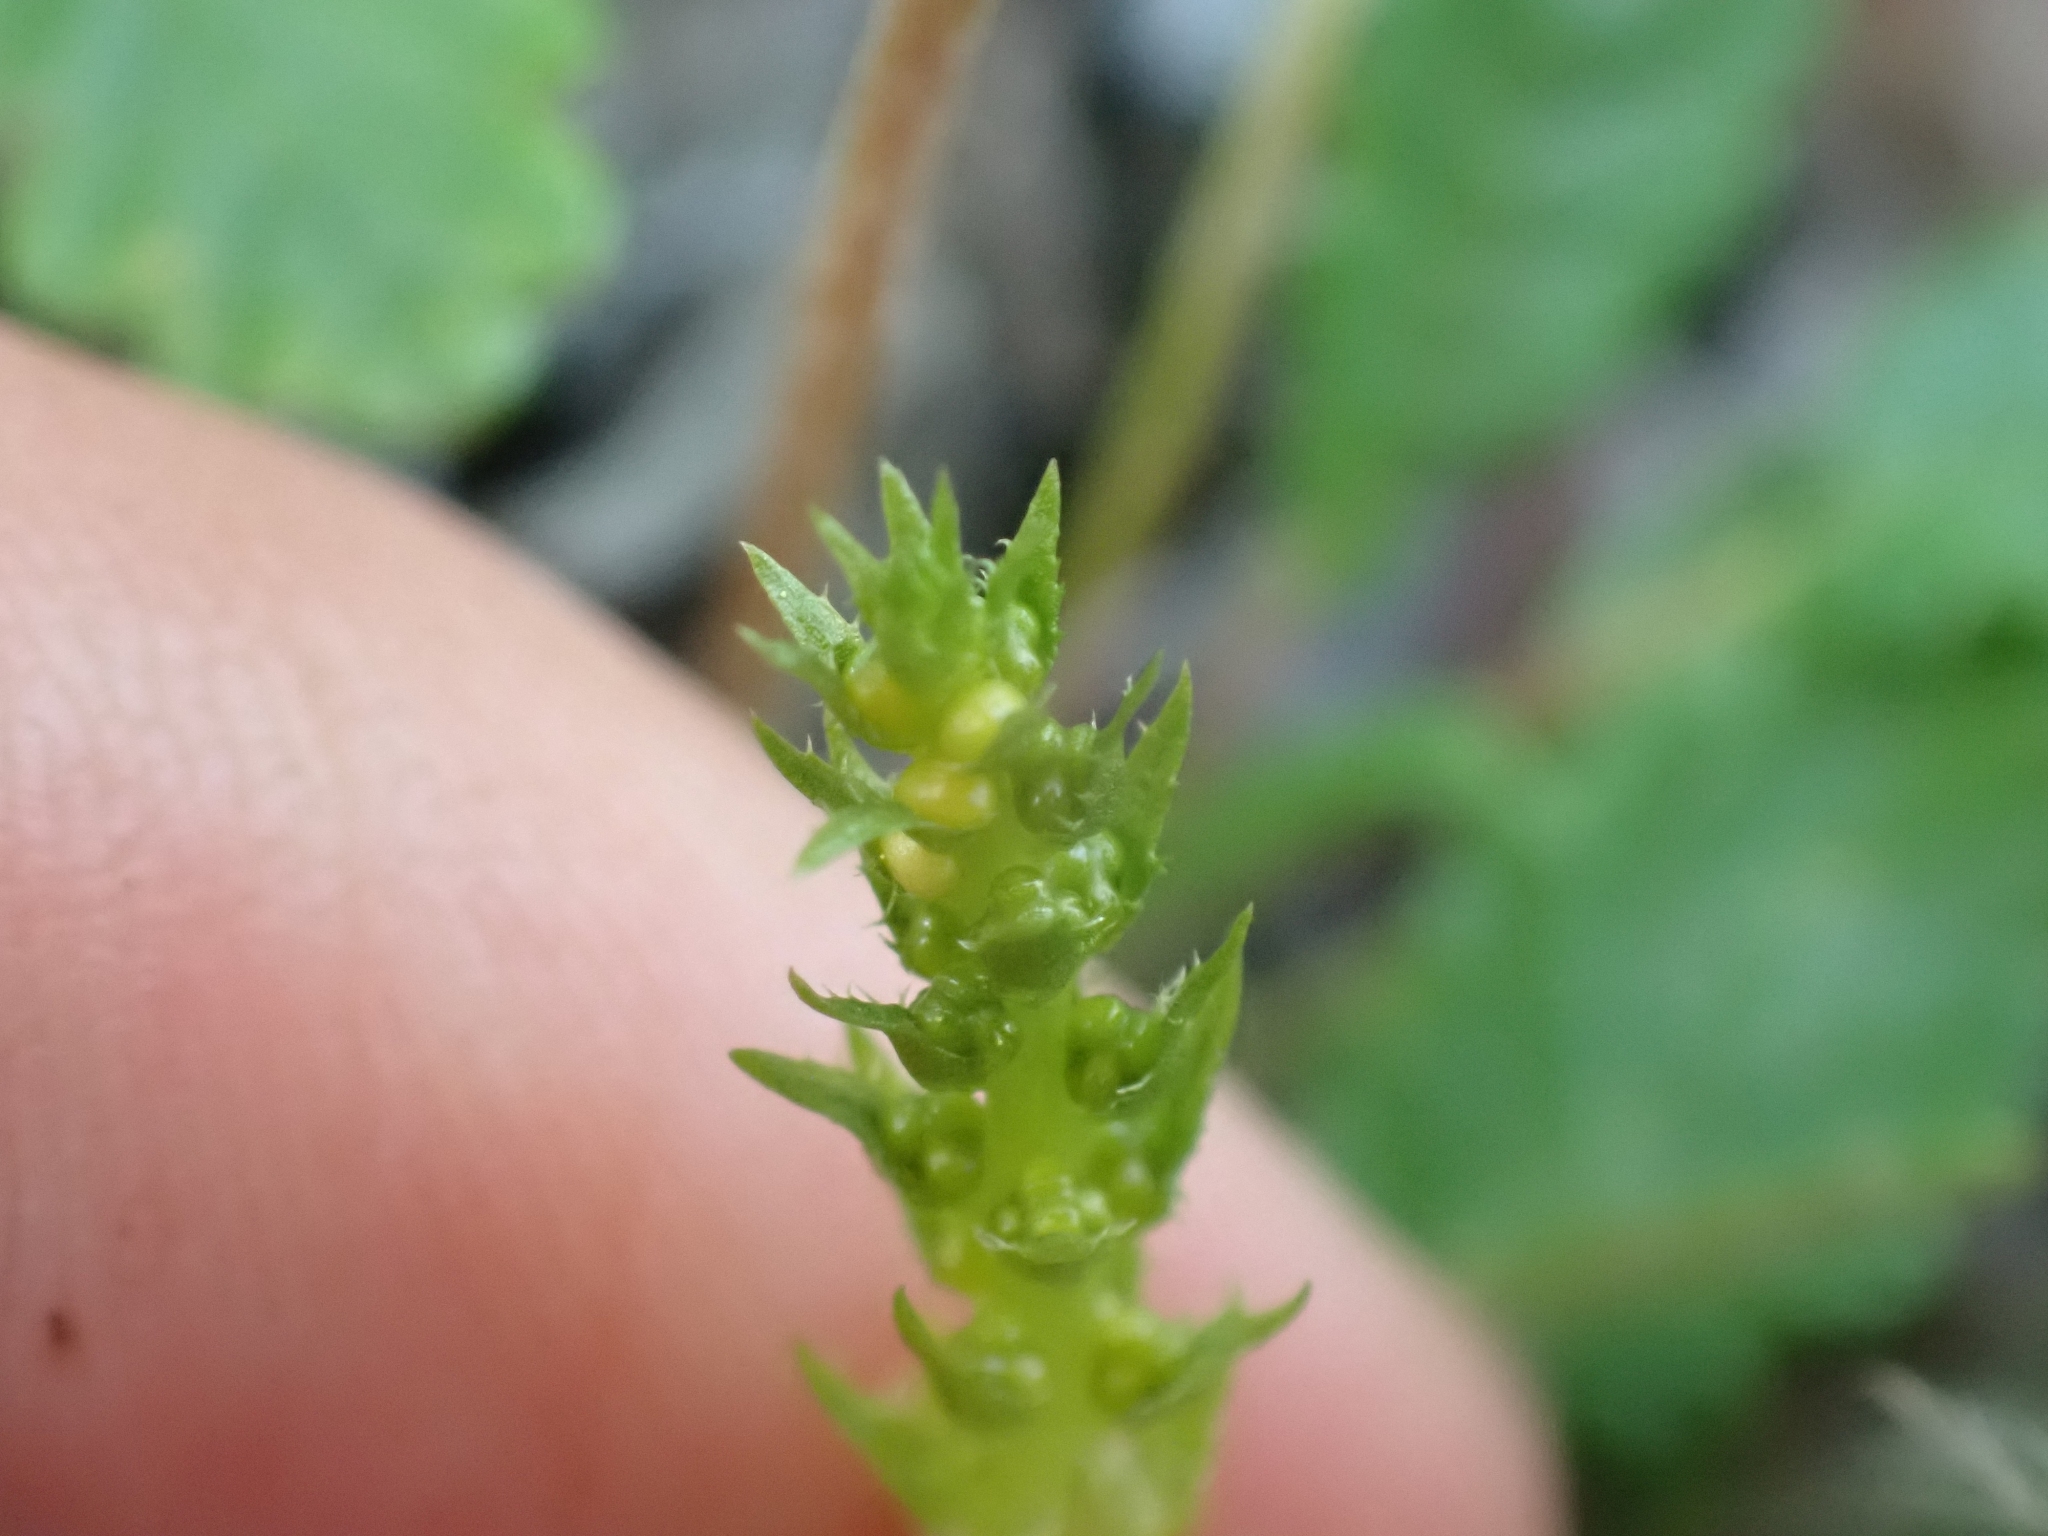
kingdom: Plantae
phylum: Tracheophyta
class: Lycopodiopsida
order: Selaginellales
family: Selaginellaceae
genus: Selaginella
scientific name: Selaginella selaginoides
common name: Prickly mountain-moss
